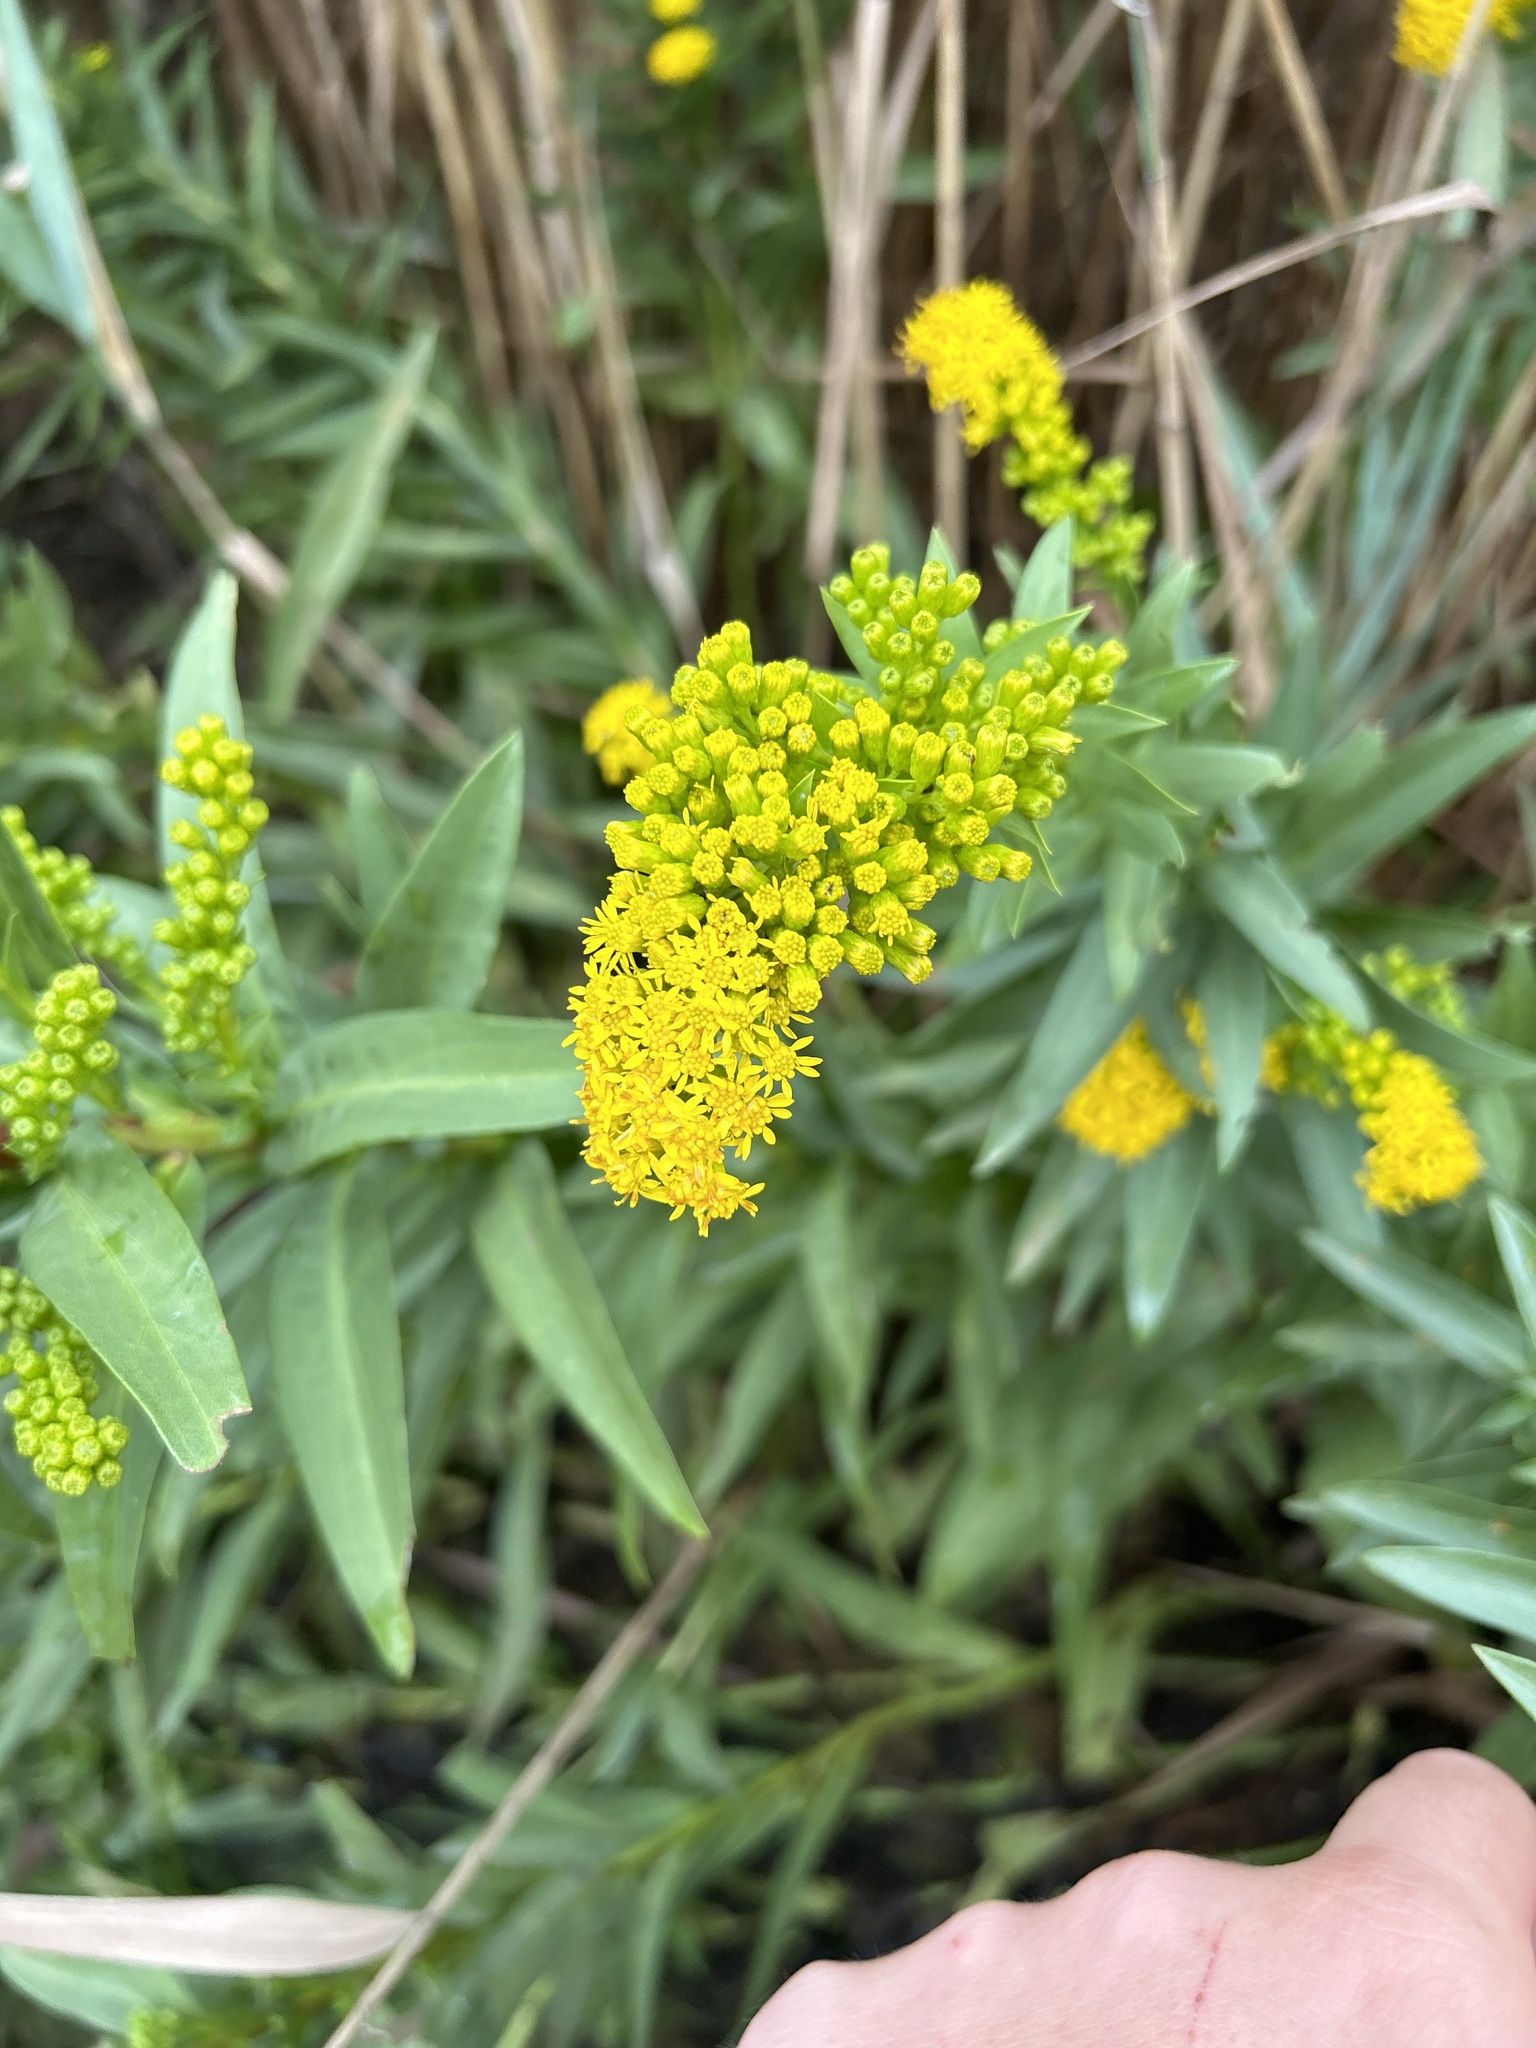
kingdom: Plantae
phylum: Tracheophyta
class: Magnoliopsida
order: Asterales
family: Asteraceae
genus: Solidago
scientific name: Solidago sempervirens
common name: Salt-marsh goldenrod
